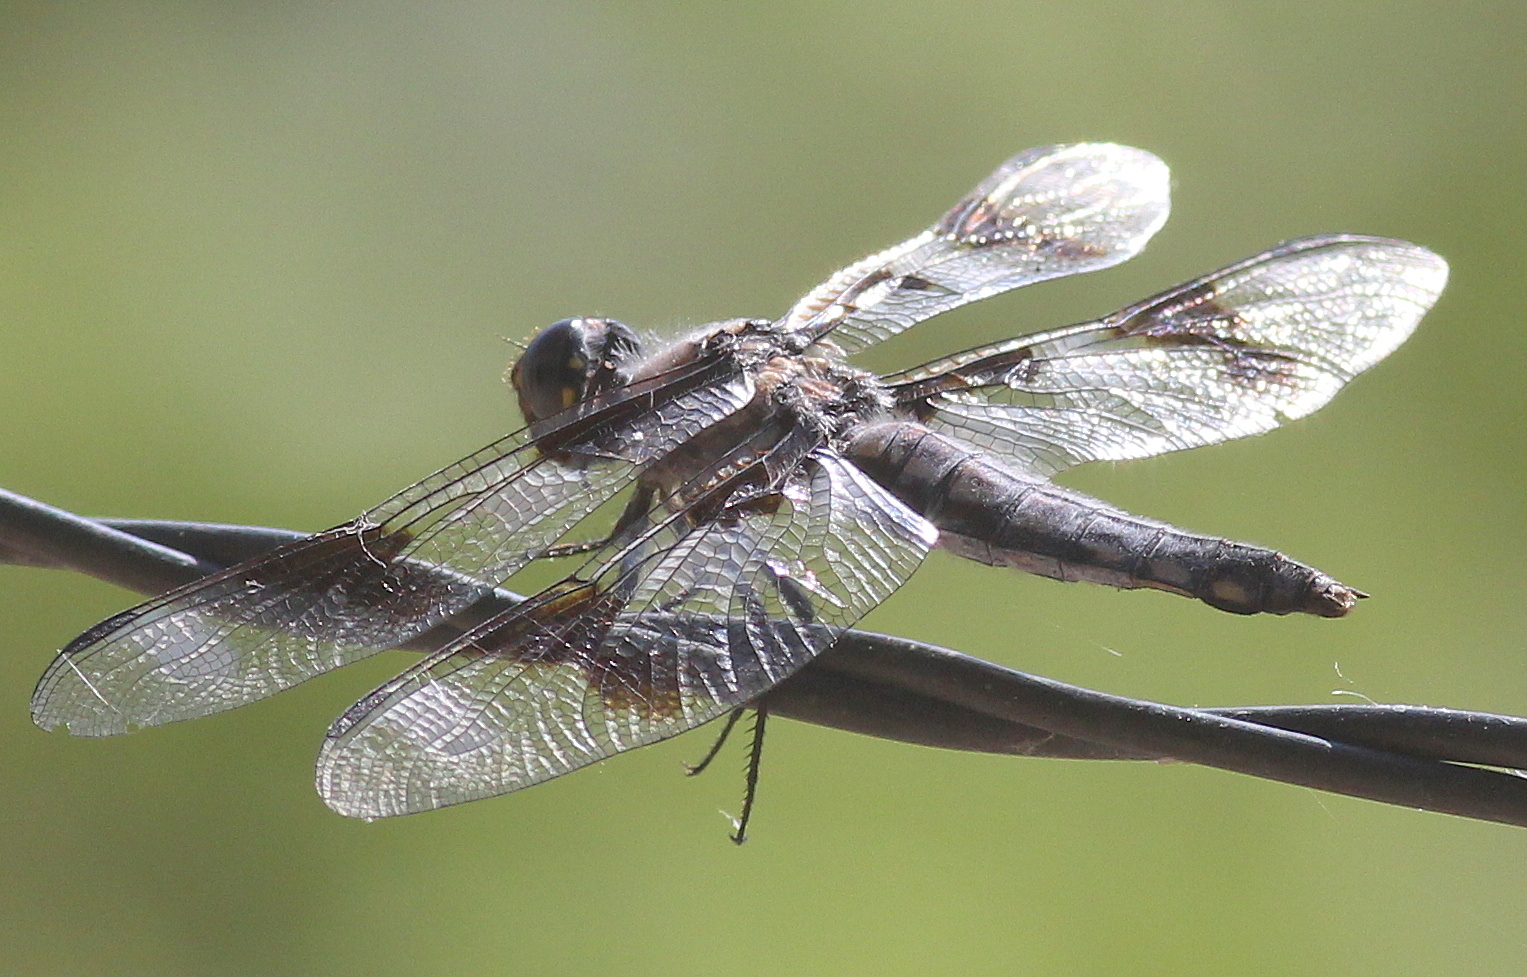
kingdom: Animalia
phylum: Arthropoda
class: Insecta
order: Odonata
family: Libellulidae
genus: Libellula
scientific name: Libellula forensis
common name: Eight-spotted skimmer
